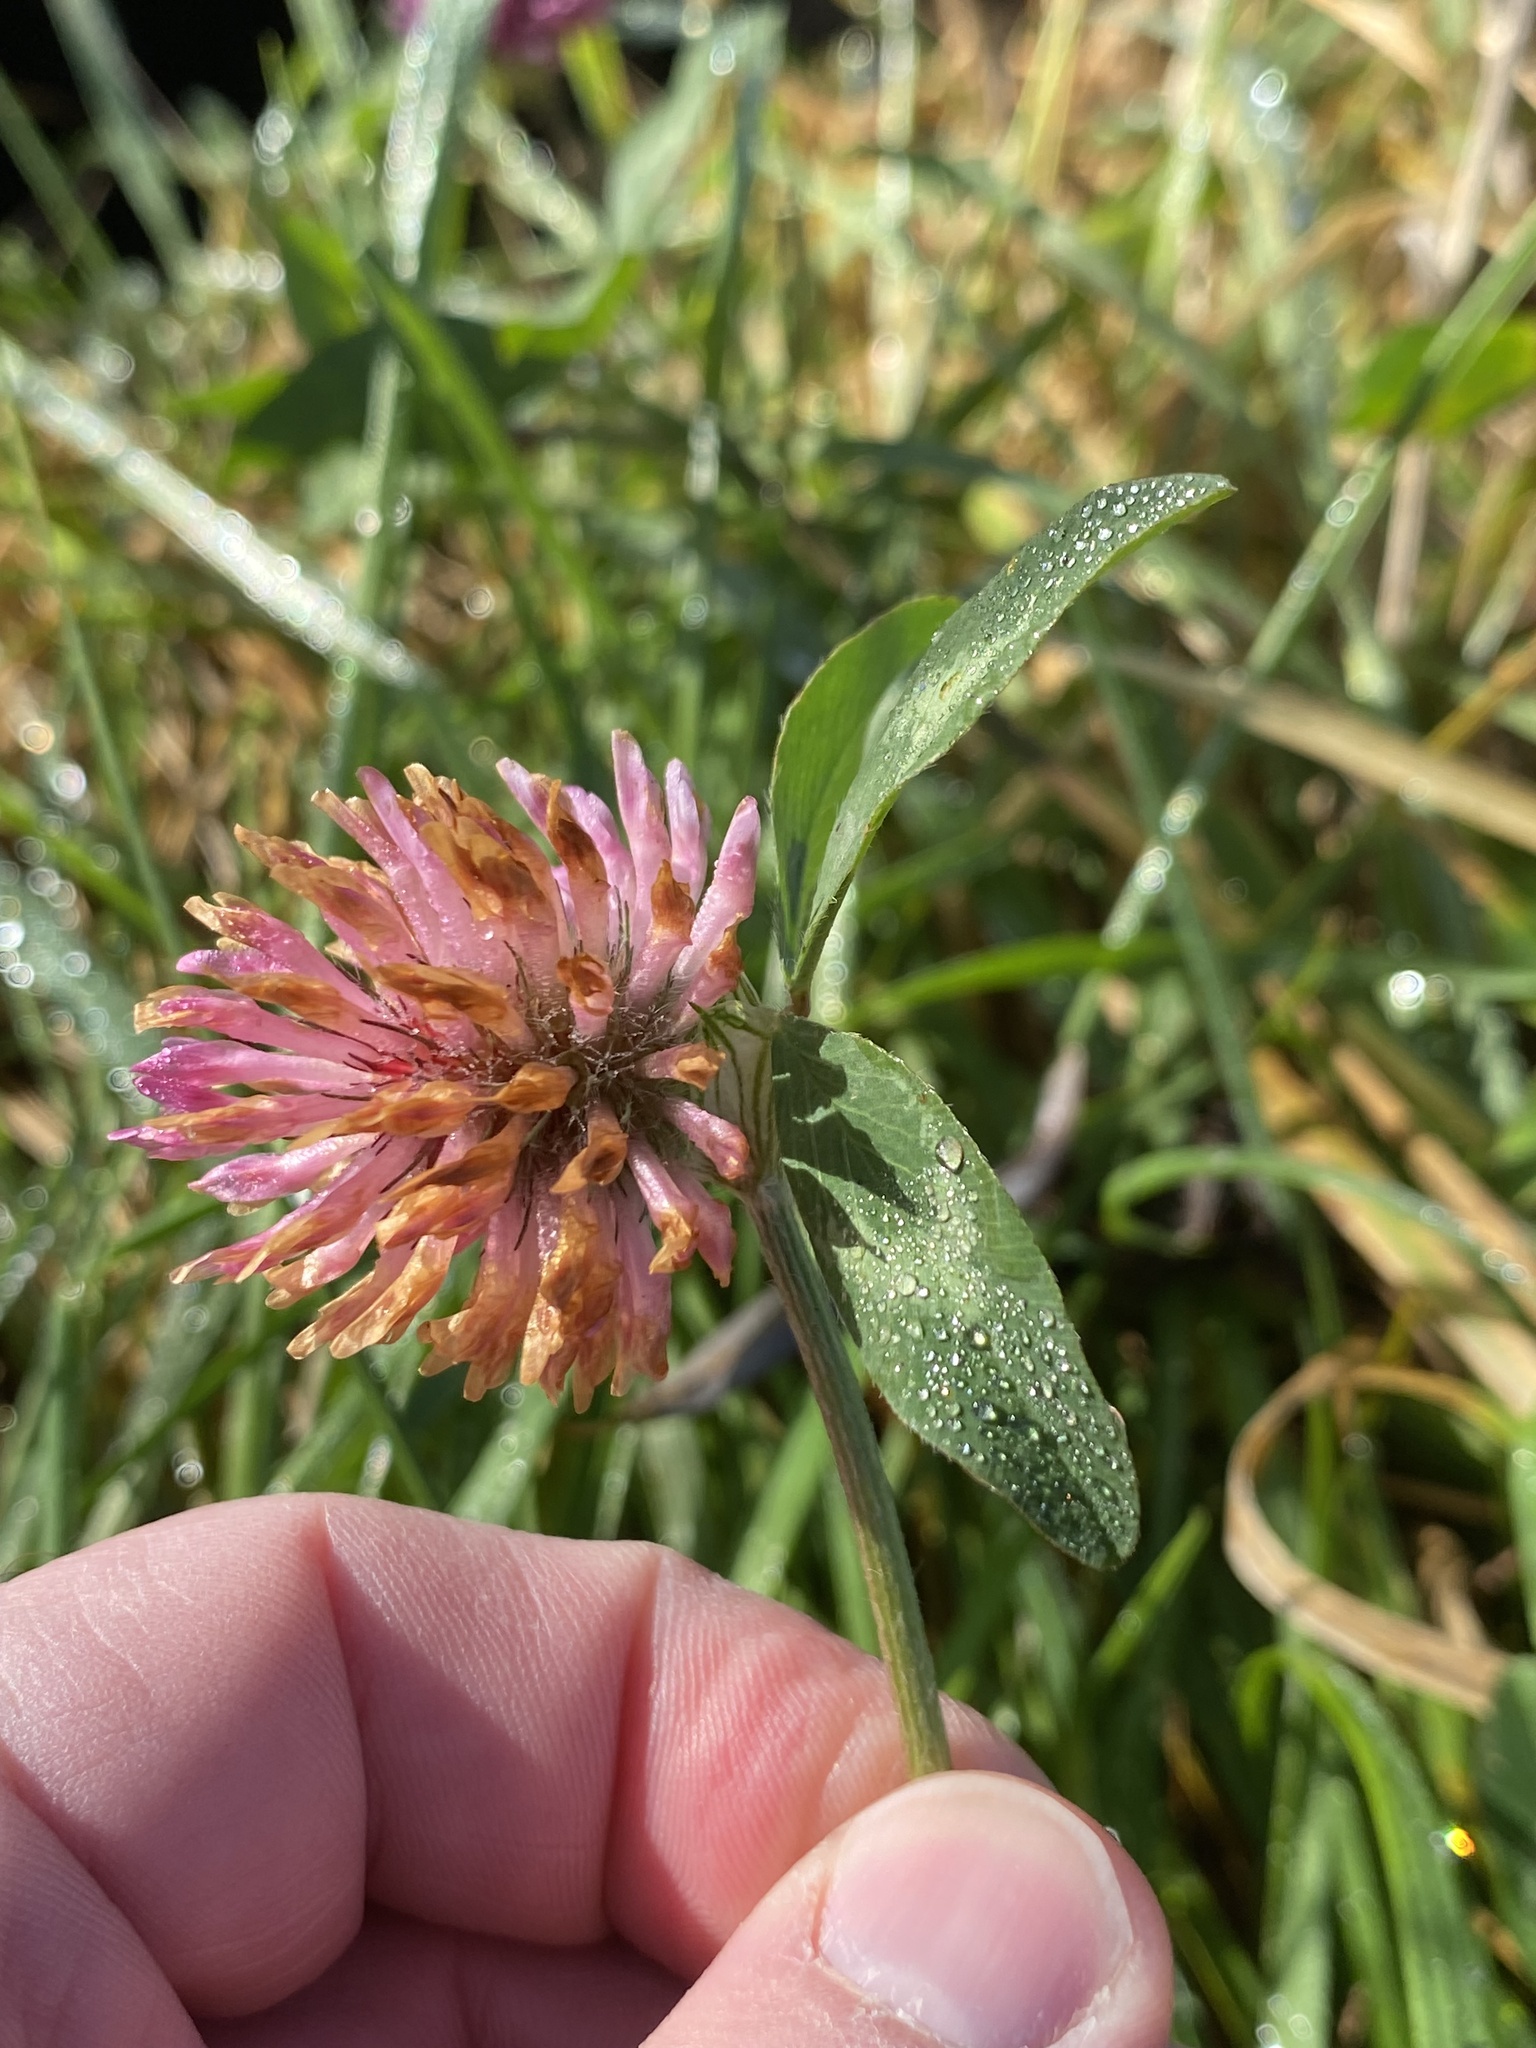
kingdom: Plantae
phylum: Tracheophyta
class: Magnoliopsida
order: Fabales
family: Fabaceae
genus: Trifolium
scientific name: Trifolium pratense
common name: Red clover
